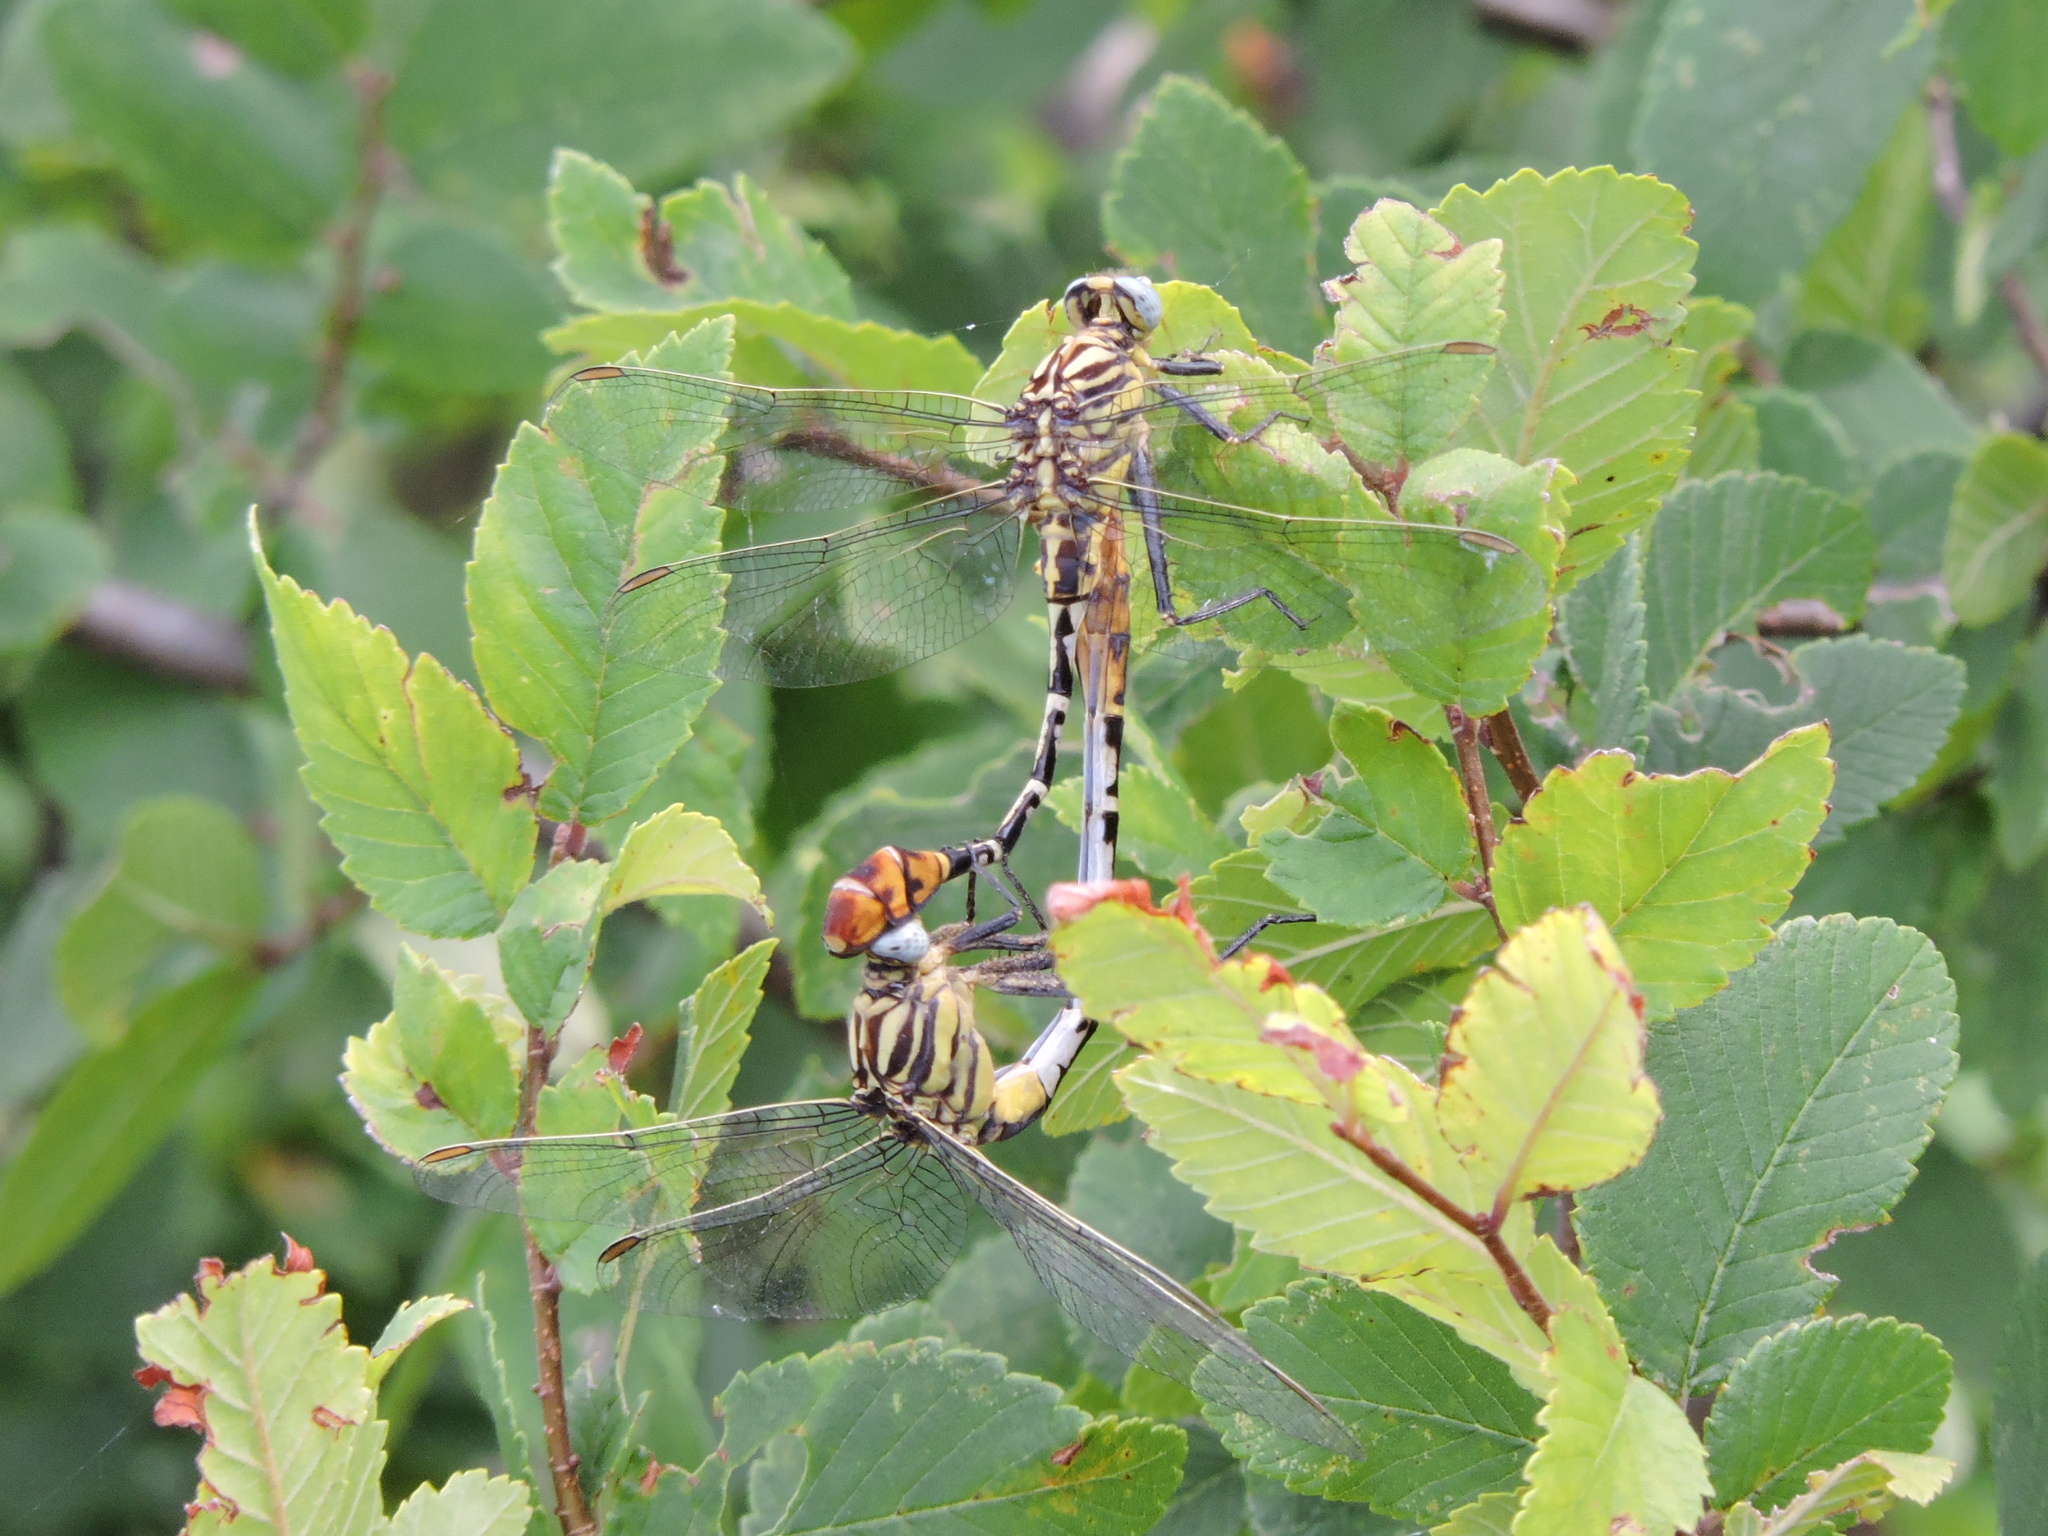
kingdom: Animalia
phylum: Arthropoda
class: Insecta
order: Odonata
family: Gomphidae
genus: Dromogomphus
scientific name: Dromogomphus spoliatus
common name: Flag-tailed spinyleg
